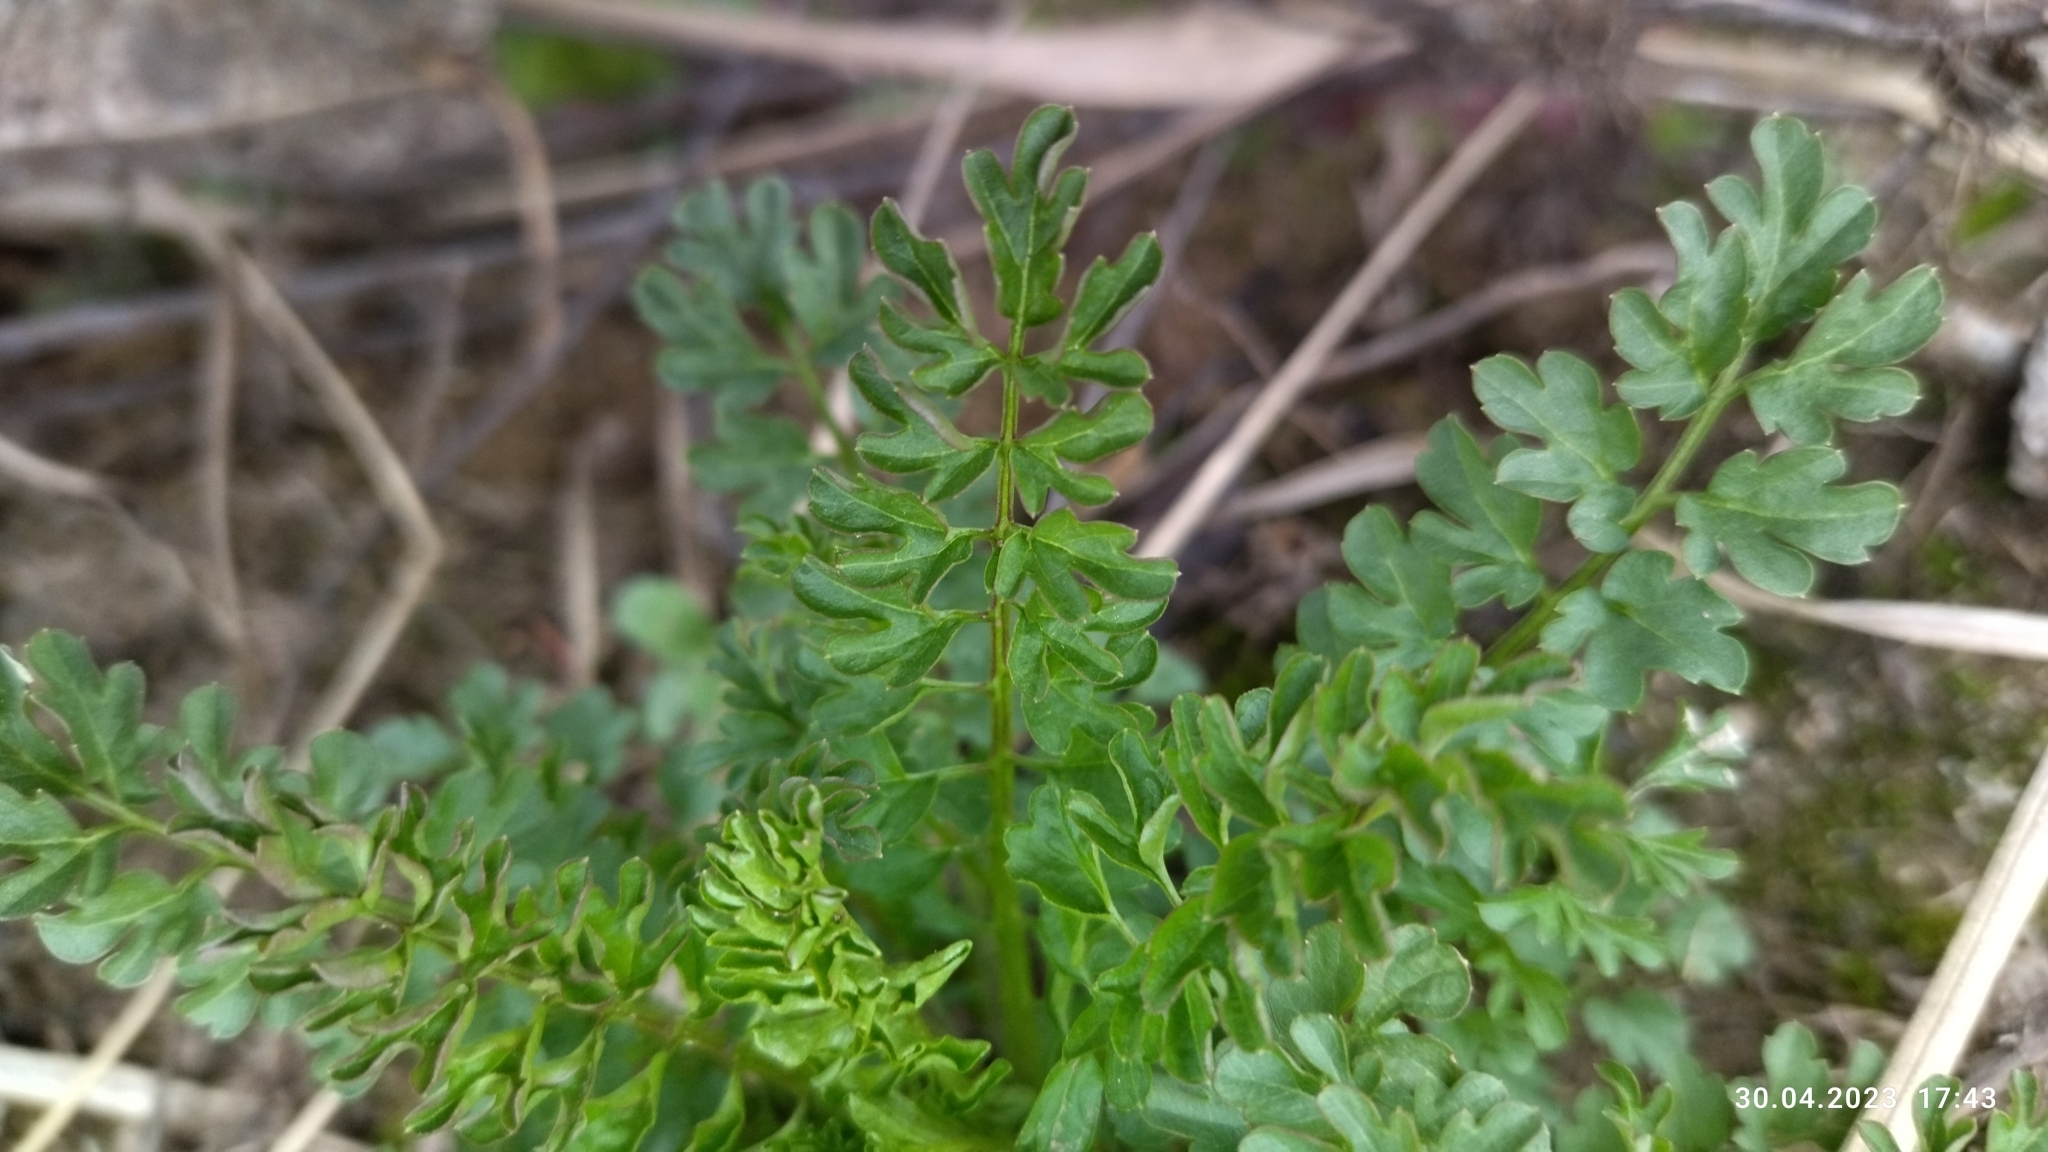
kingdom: Plantae
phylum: Tracheophyta
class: Magnoliopsida
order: Brassicales
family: Brassicaceae
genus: Cardamine
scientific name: Cardamine impatiens
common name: Narrow-leaved bitter-cress
